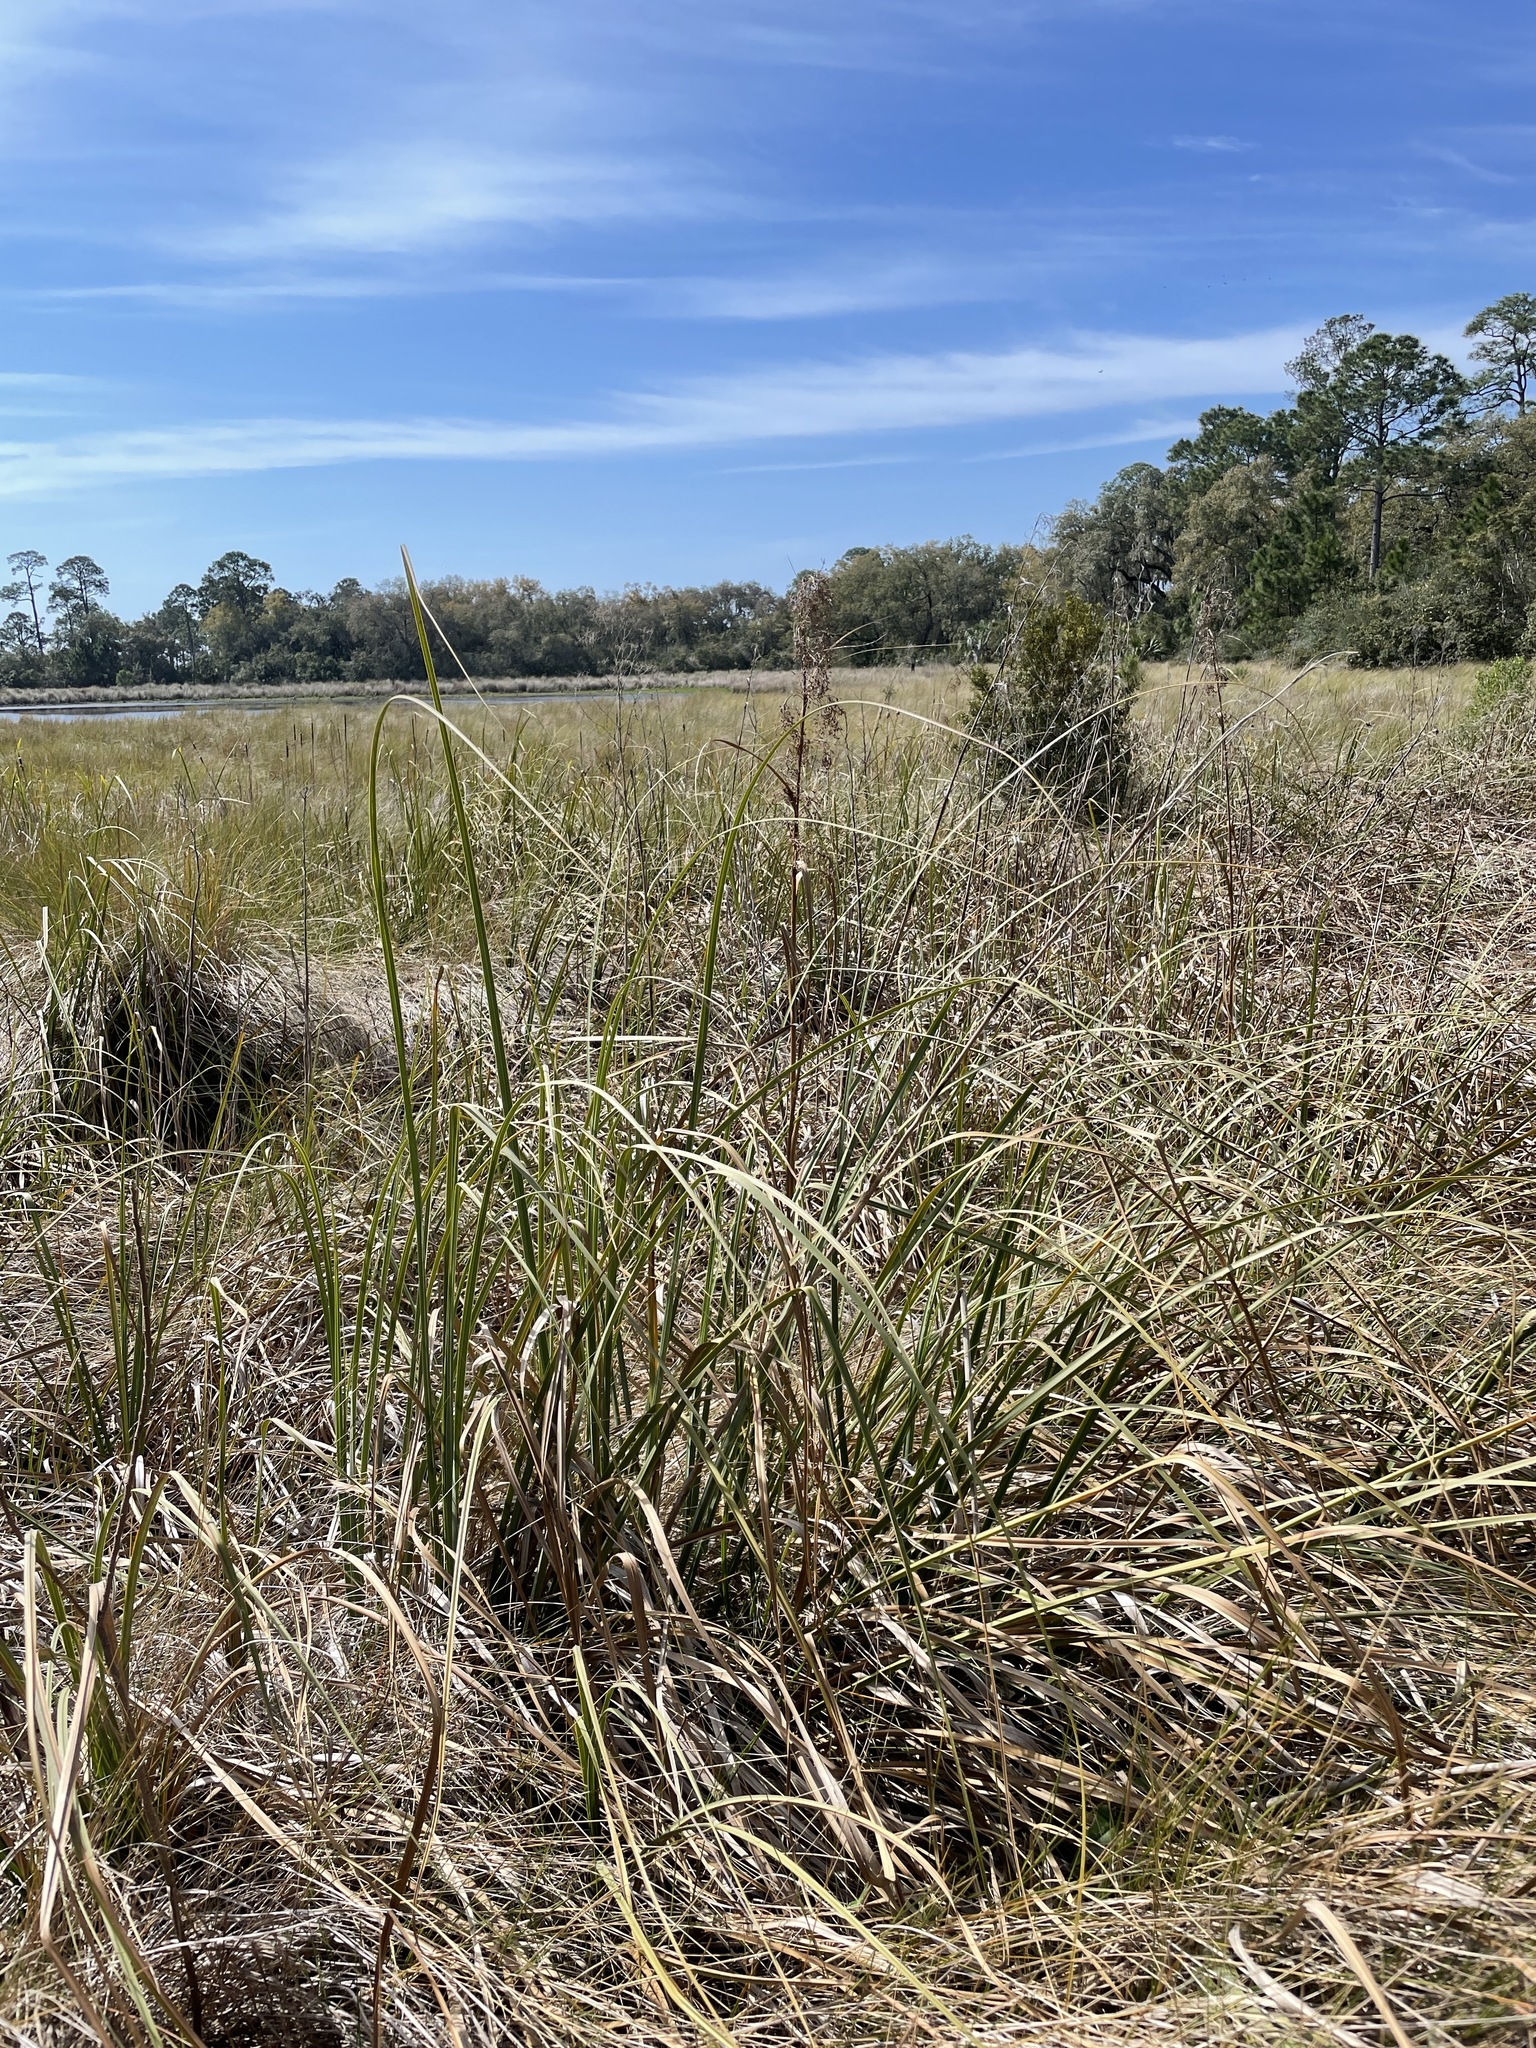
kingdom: Plantae
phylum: Tracheophyta
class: Liliopsida
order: Poales
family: Cyperaceae
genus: Cladium
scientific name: Cladium mariscus
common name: Great fen-sedge
